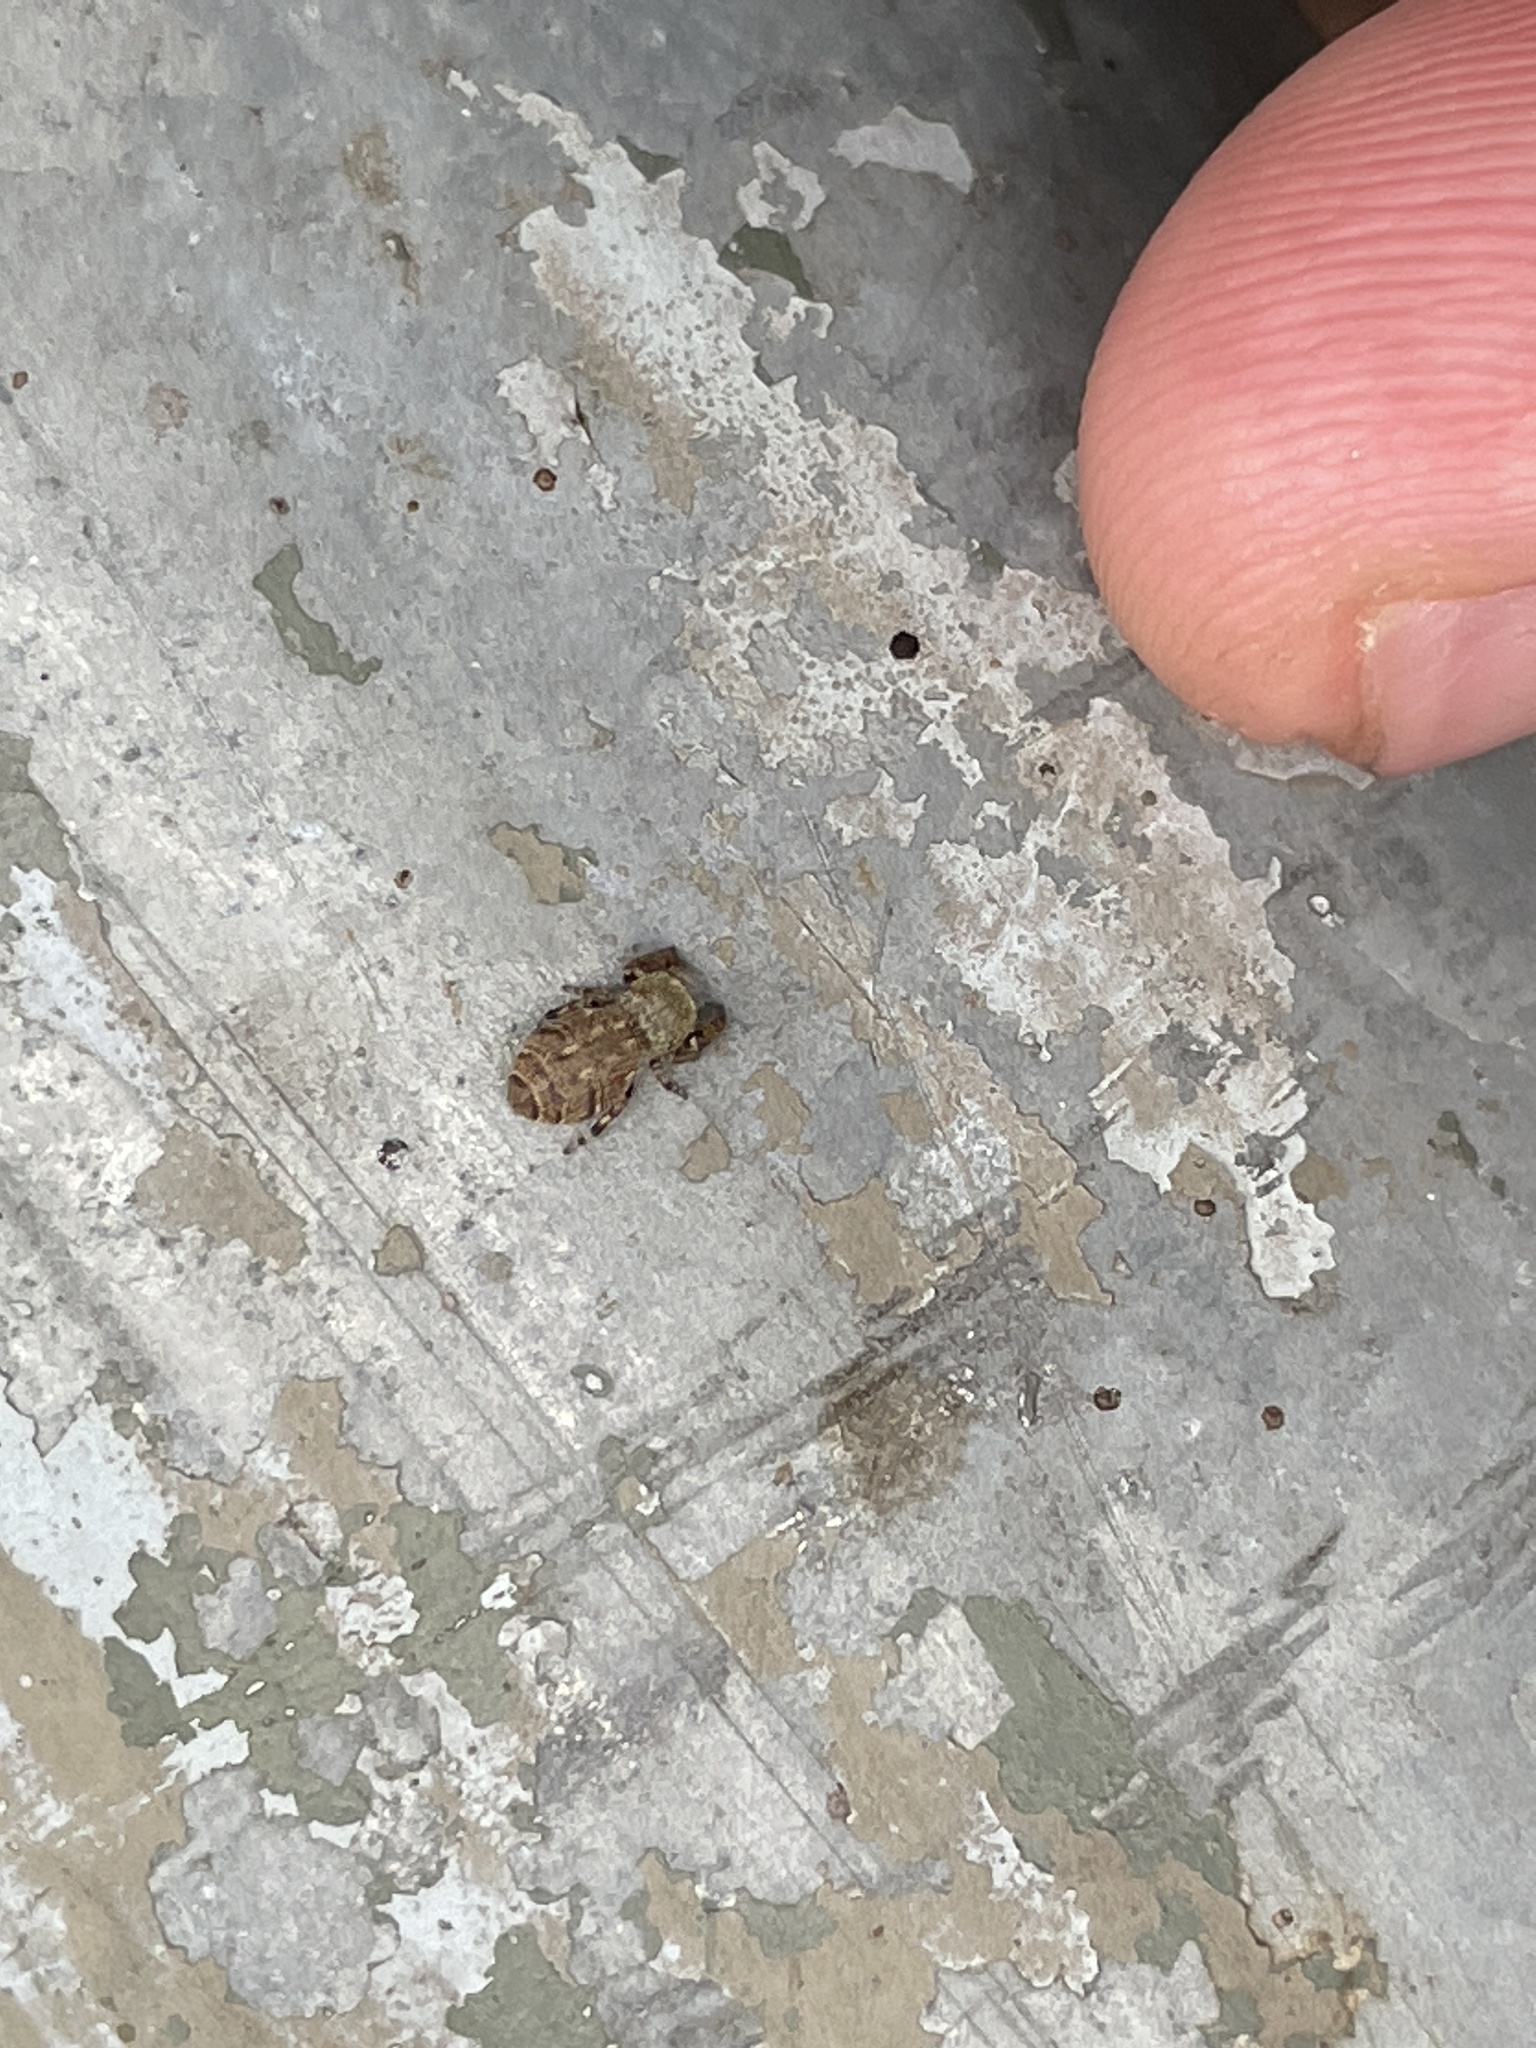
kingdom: Animalia
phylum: Arthropoda
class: Arachnida
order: Araneae
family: Salticidae
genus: Rhene
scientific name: Rhene flavicomans
